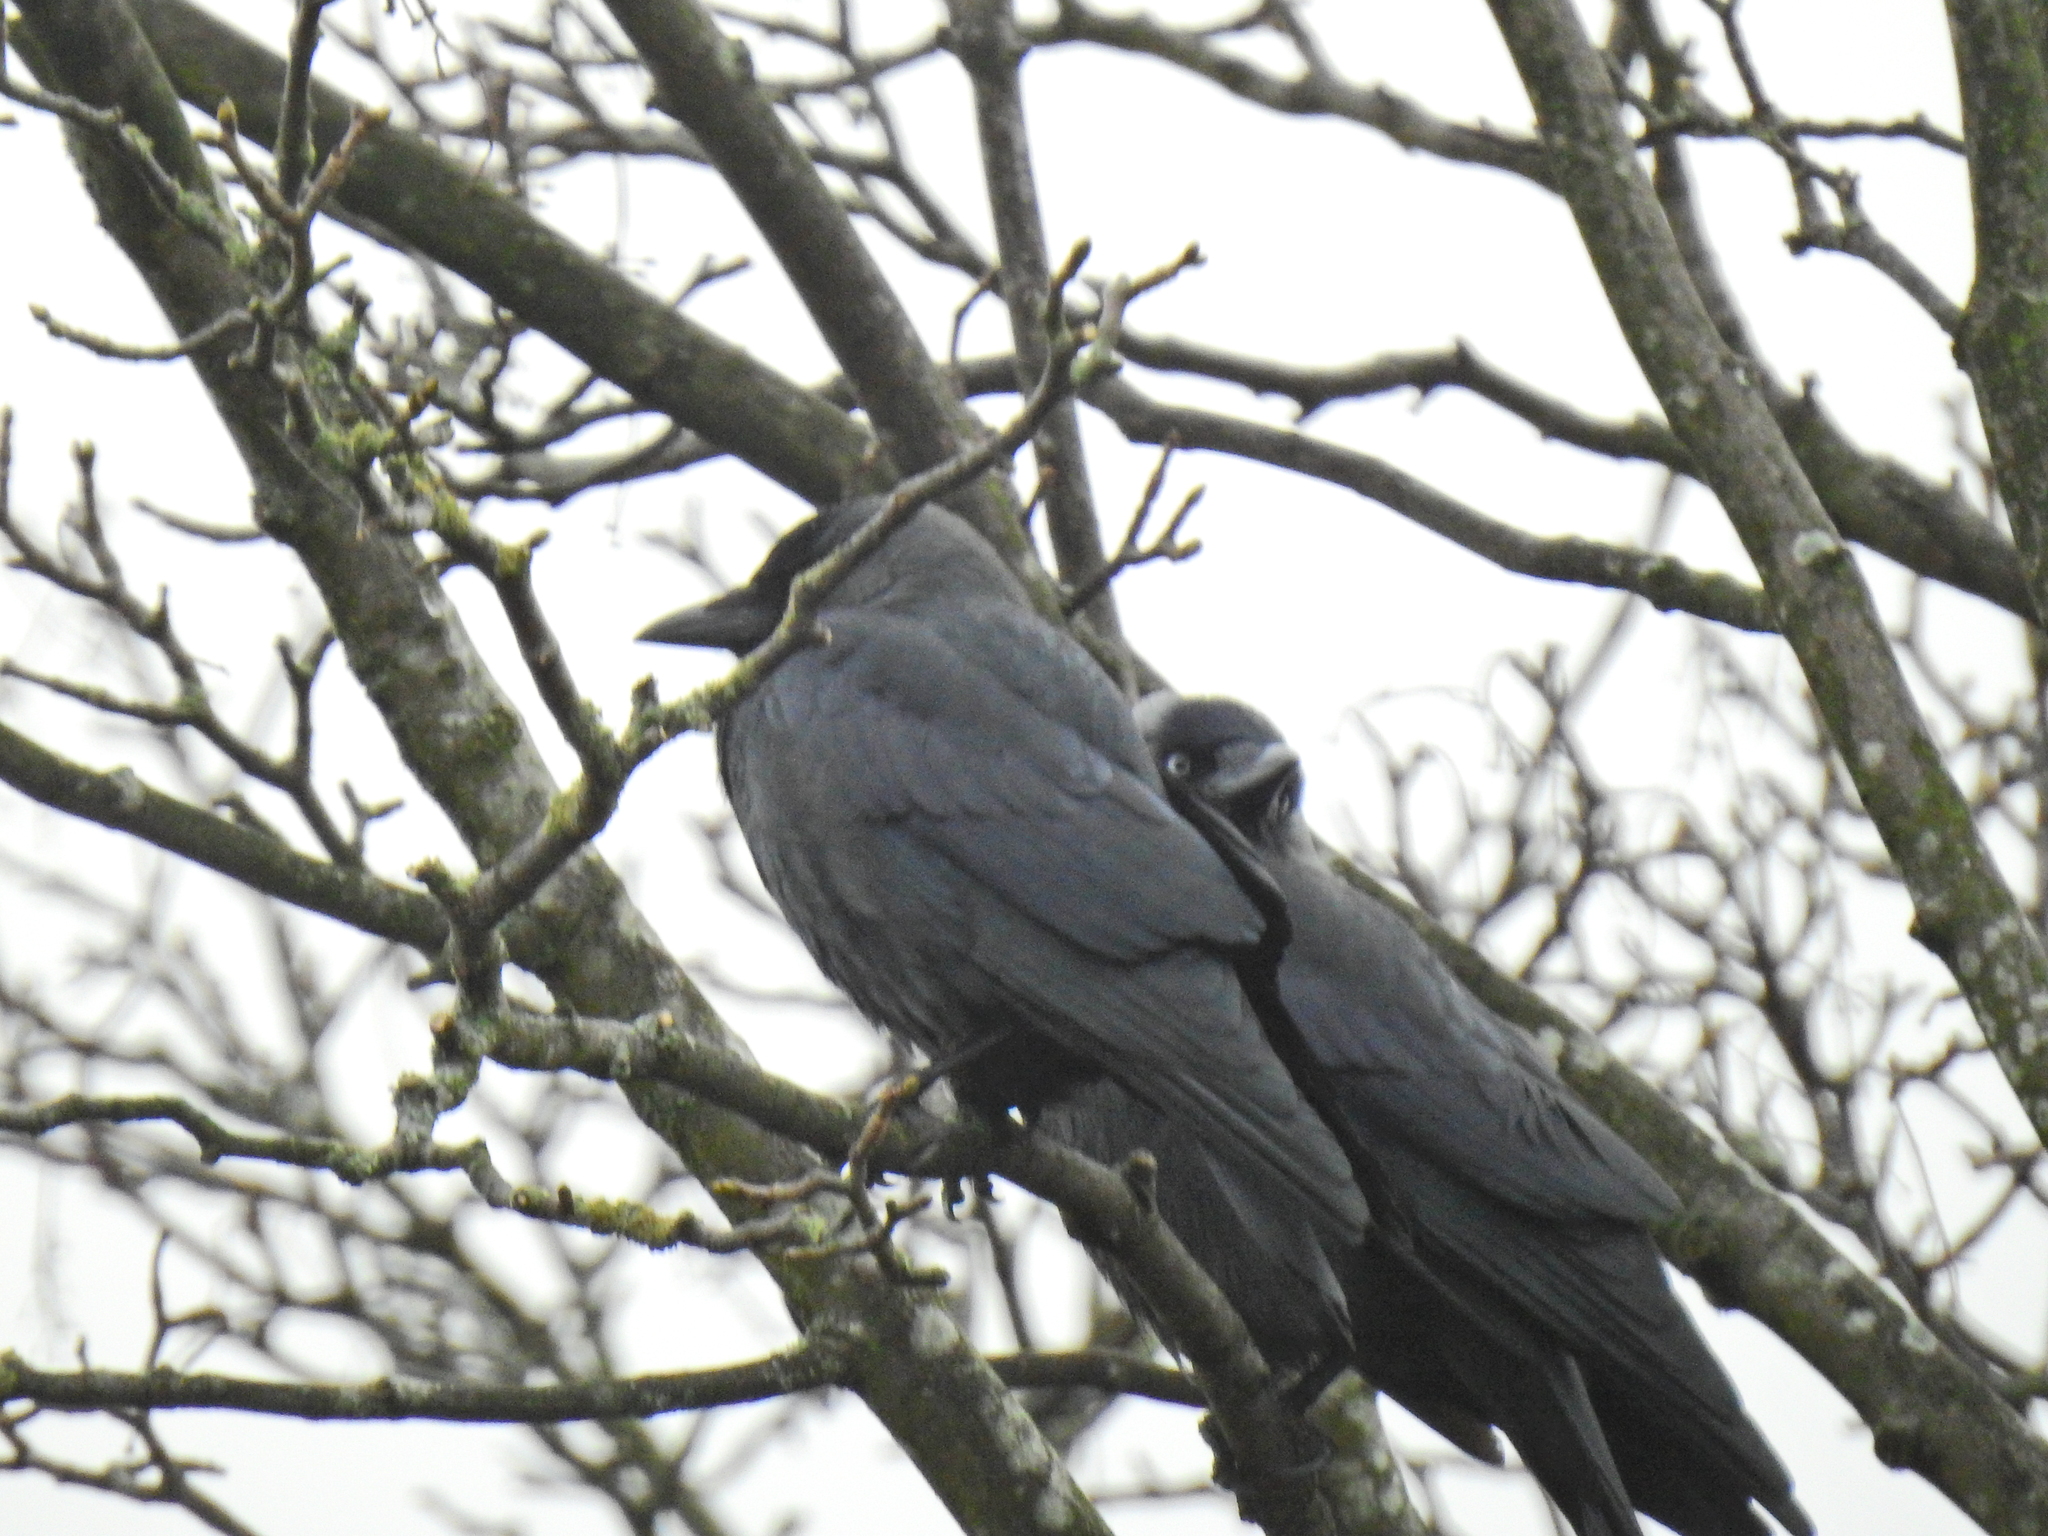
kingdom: Animalia
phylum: Chordata
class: Aves
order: Passeriformes
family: Corvidae
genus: Coloeus
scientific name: Coloeus monedula
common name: Western jackdaw
